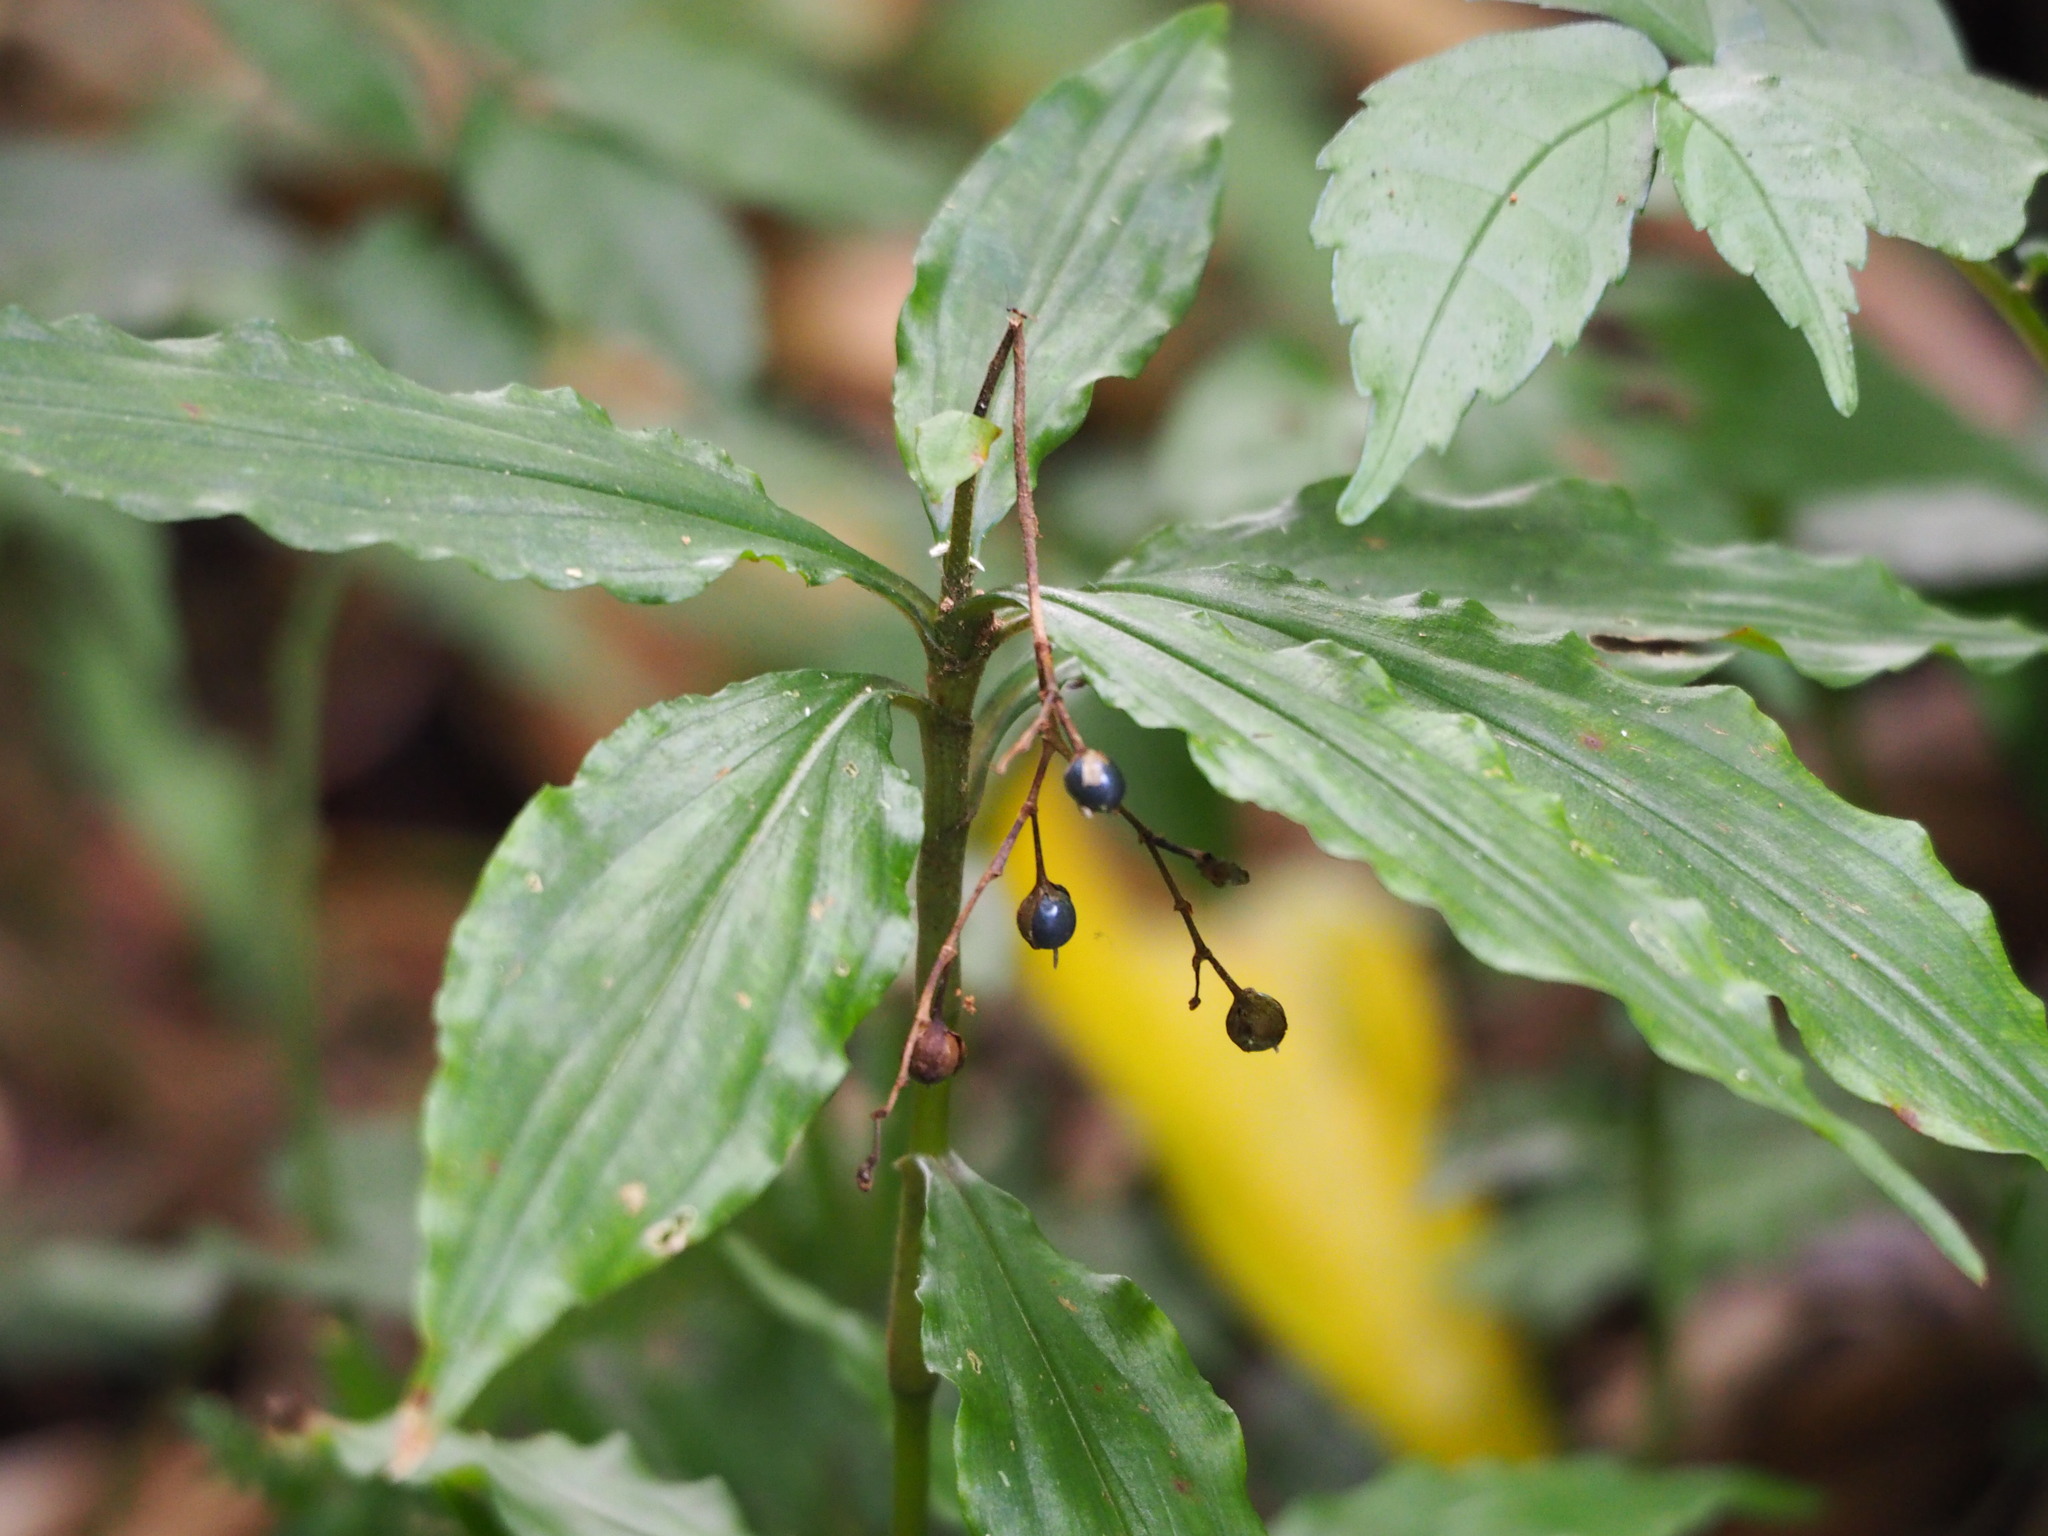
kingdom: Plantae
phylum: Tracheophyta
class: Liliopsida
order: Commelinales
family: Commelinaceae
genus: Pollia
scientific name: Pollia miranda
